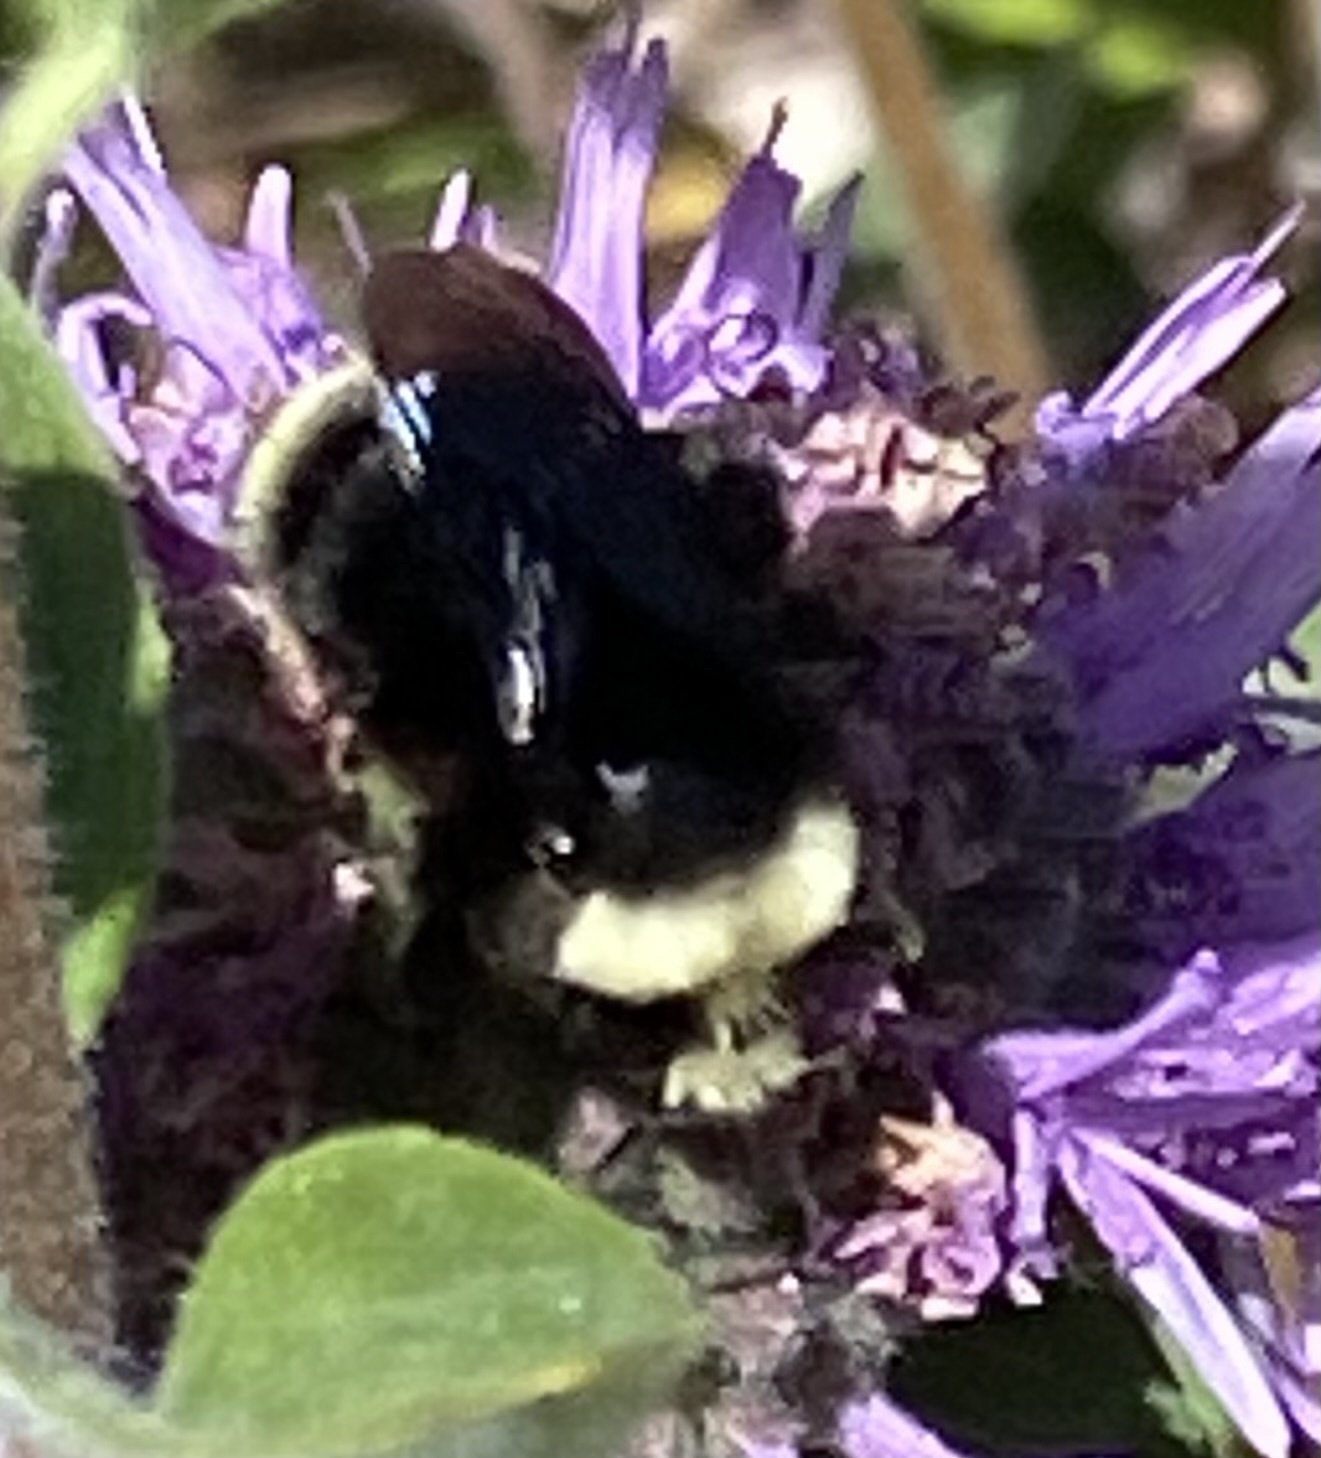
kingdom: Animalia
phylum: Arthropoda
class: Insecta
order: Hymenoptera
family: Apidae
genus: Bombus
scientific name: Bombus vosnesenskii
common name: Vosnesensky bumble bee
